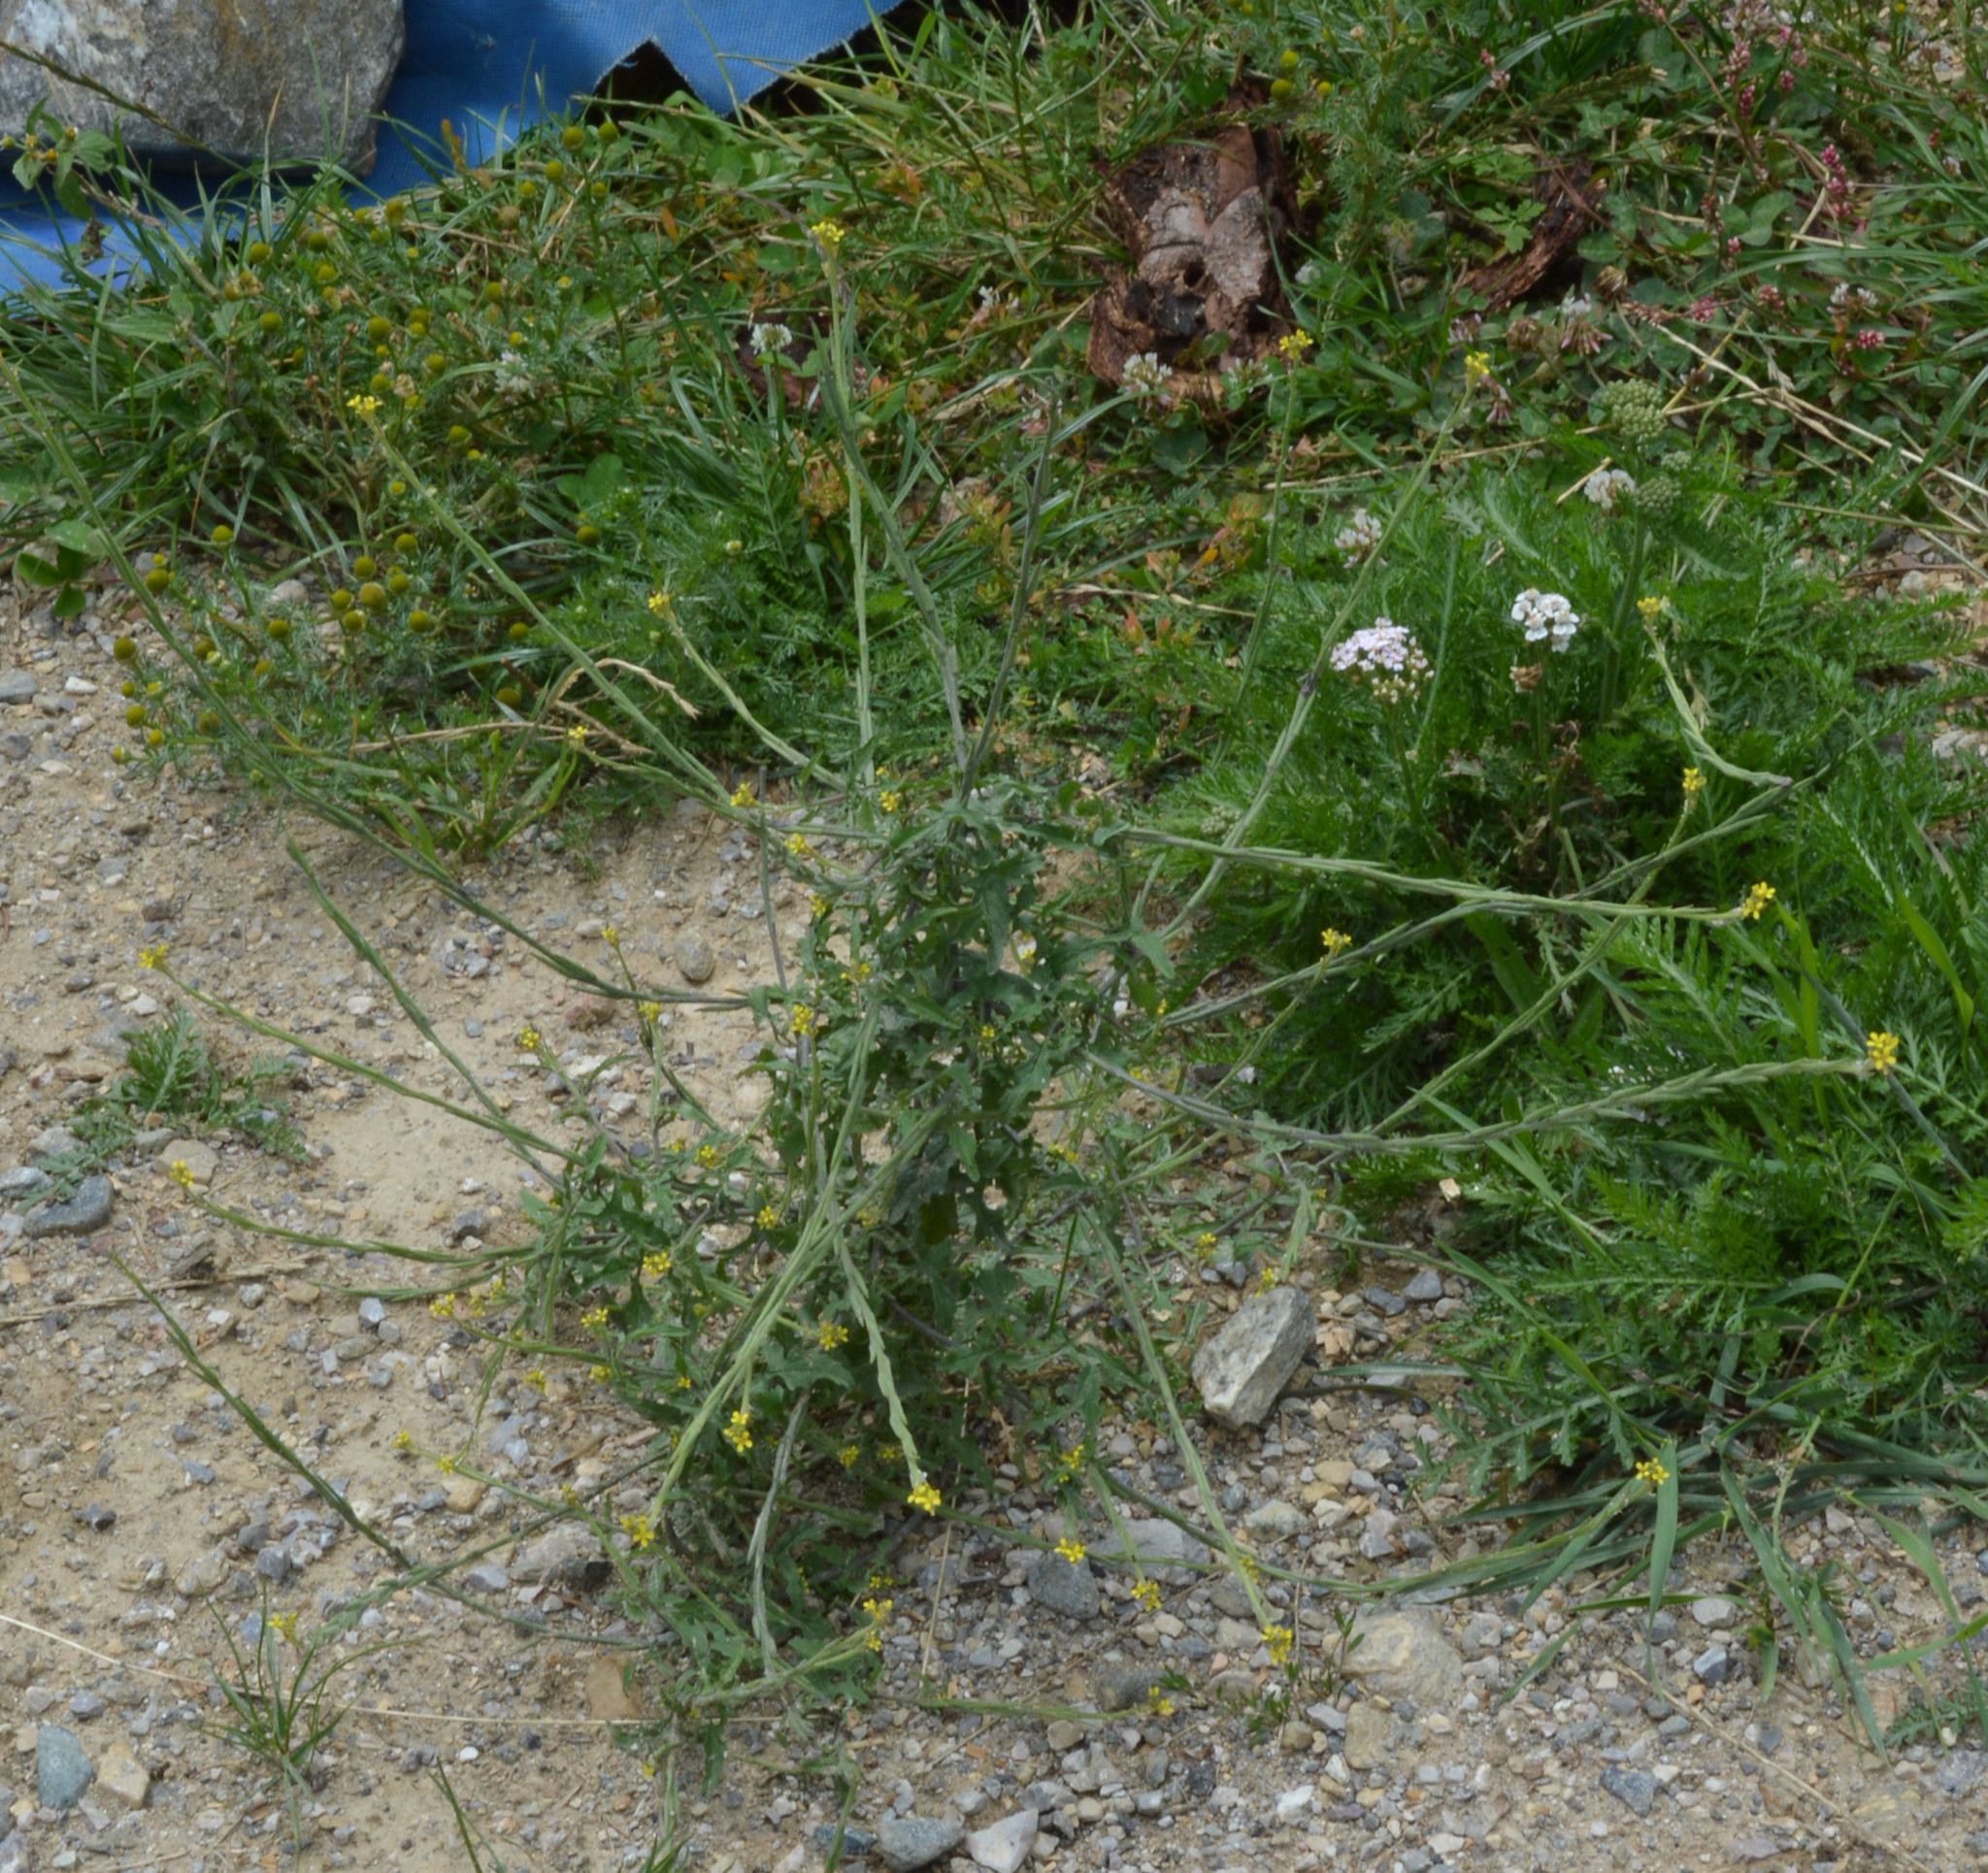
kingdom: Plantae
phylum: Tracheophyta
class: Magnoliopsida
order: Brassicales
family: Brassicaceae
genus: Sisymbrium
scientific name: Sisymbrium officinale
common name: Hedge mustard
